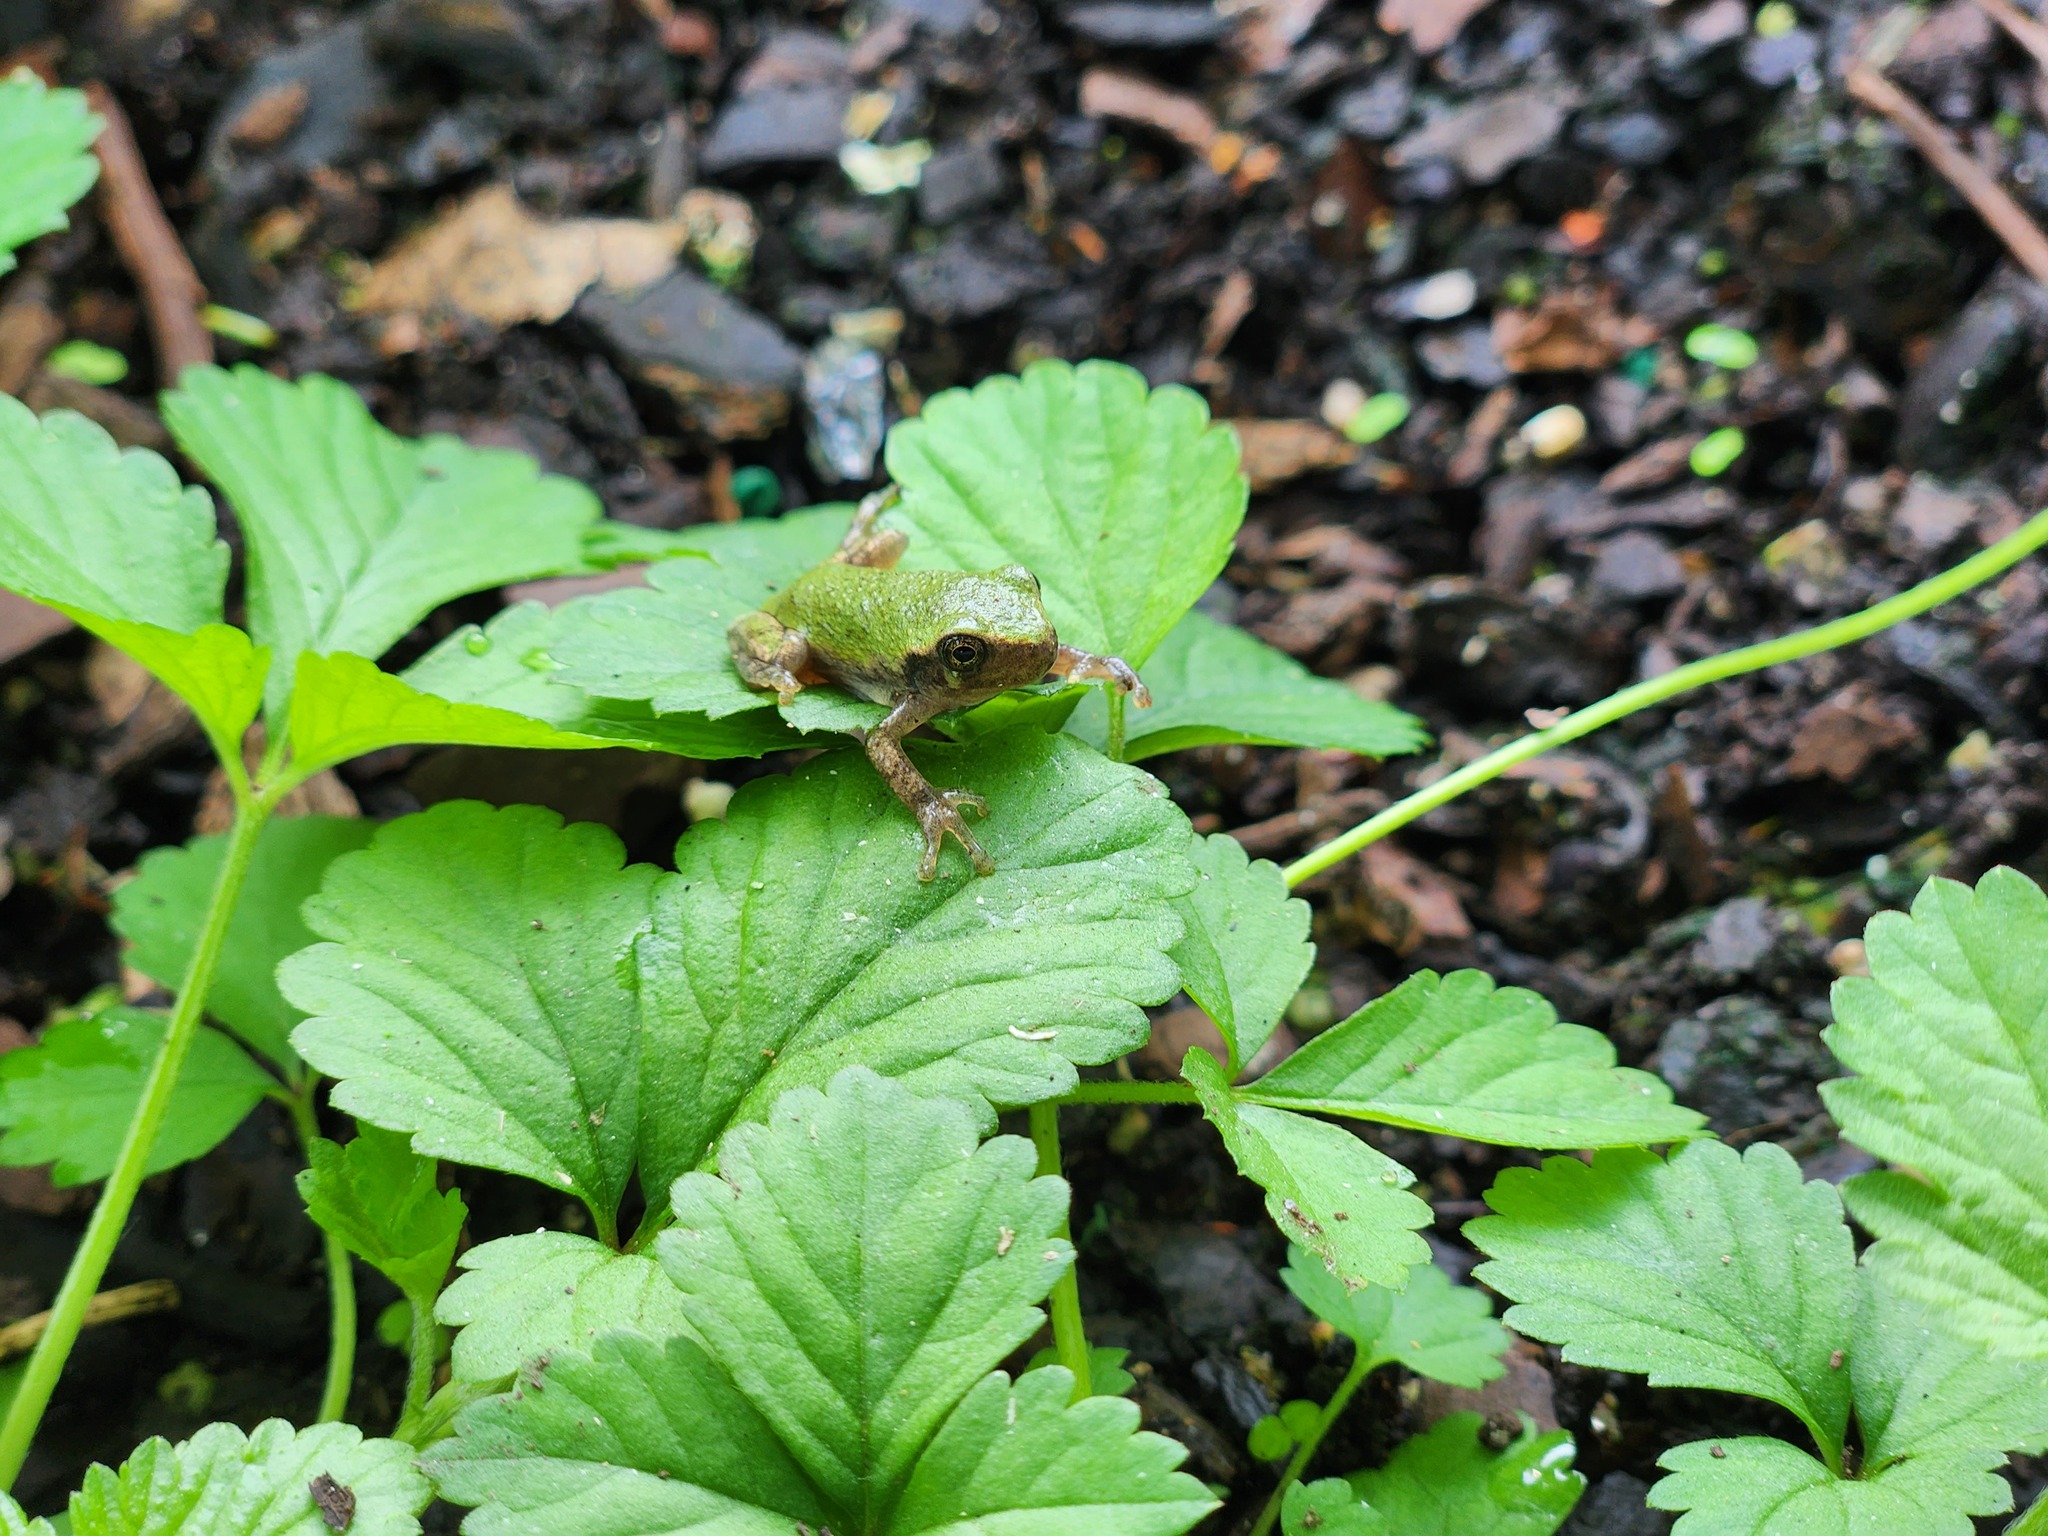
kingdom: Animalia
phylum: Chordata
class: Amphibia
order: Anura
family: Hylidae
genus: Dryophytes
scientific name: Dryophytes chrysoscelis
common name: Cope's gray treefrog
